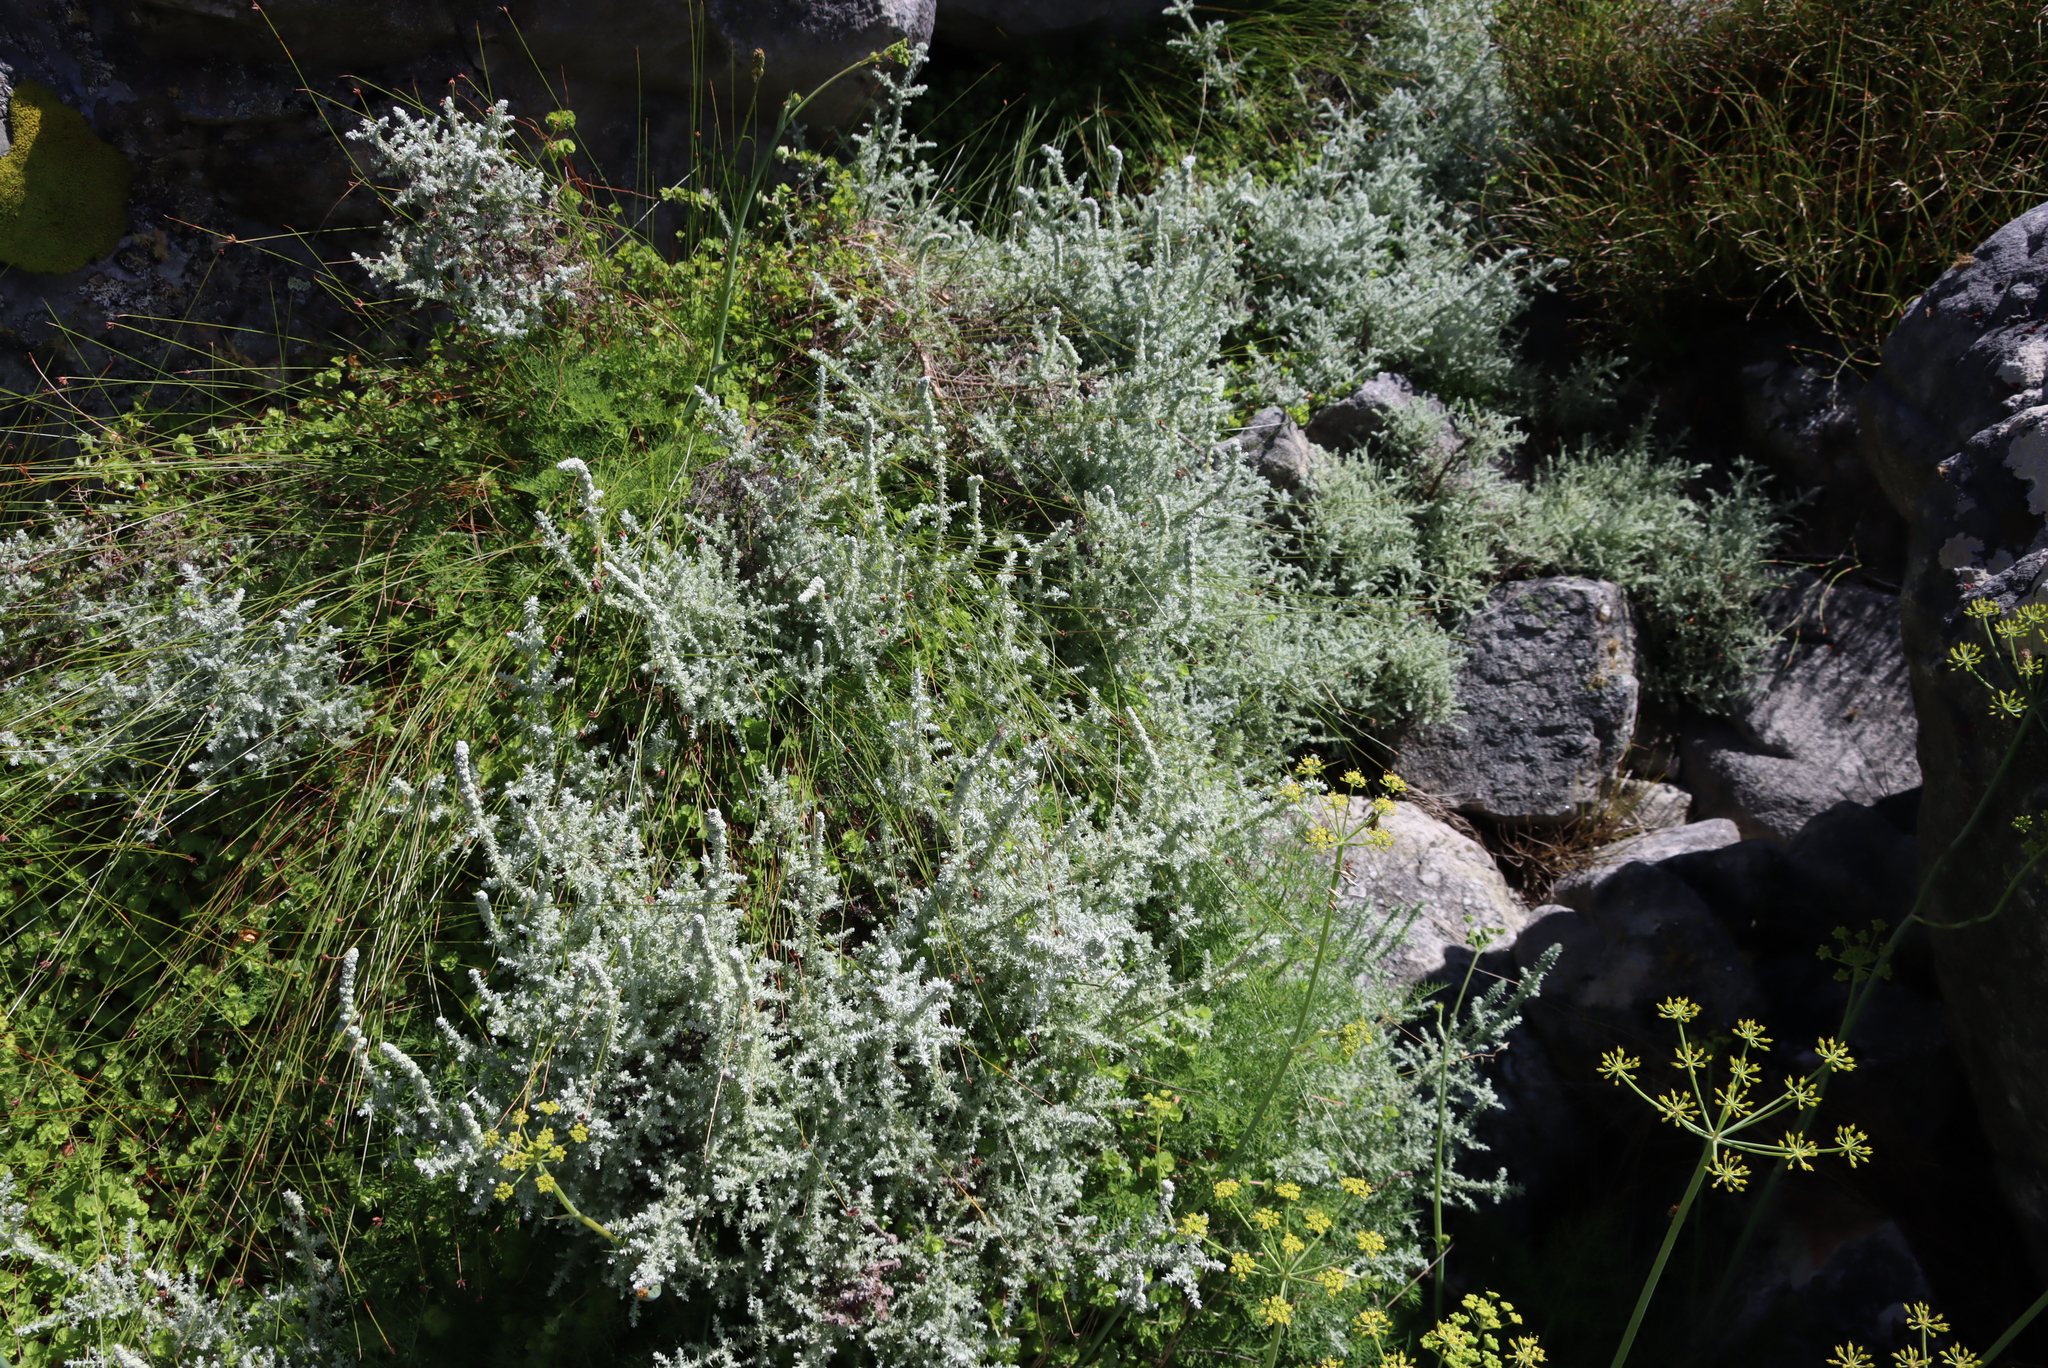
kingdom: Plantae
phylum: Tracheophyta
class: Magnoliopsida
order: Asterales
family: Asteraceae
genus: Seriphium
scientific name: Seriphium plumosum
